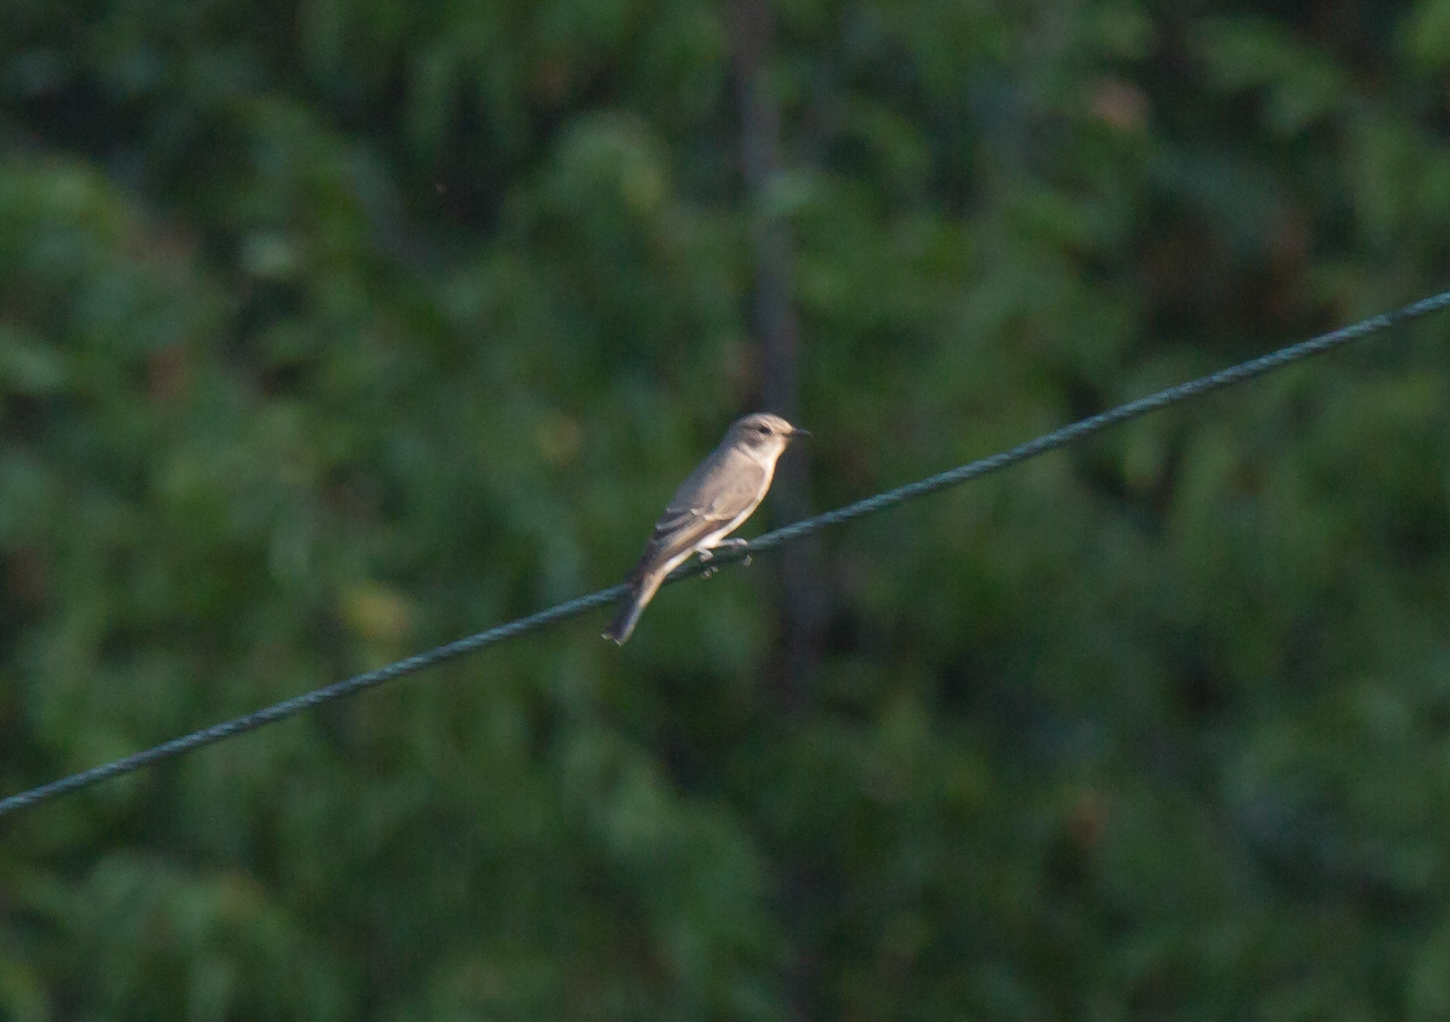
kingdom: Animalia
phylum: Chordata
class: Aves
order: Passeriformes
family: Muscicapidae
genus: Muscicapa
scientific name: Muscicapa striata
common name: Spotted flycatcher
